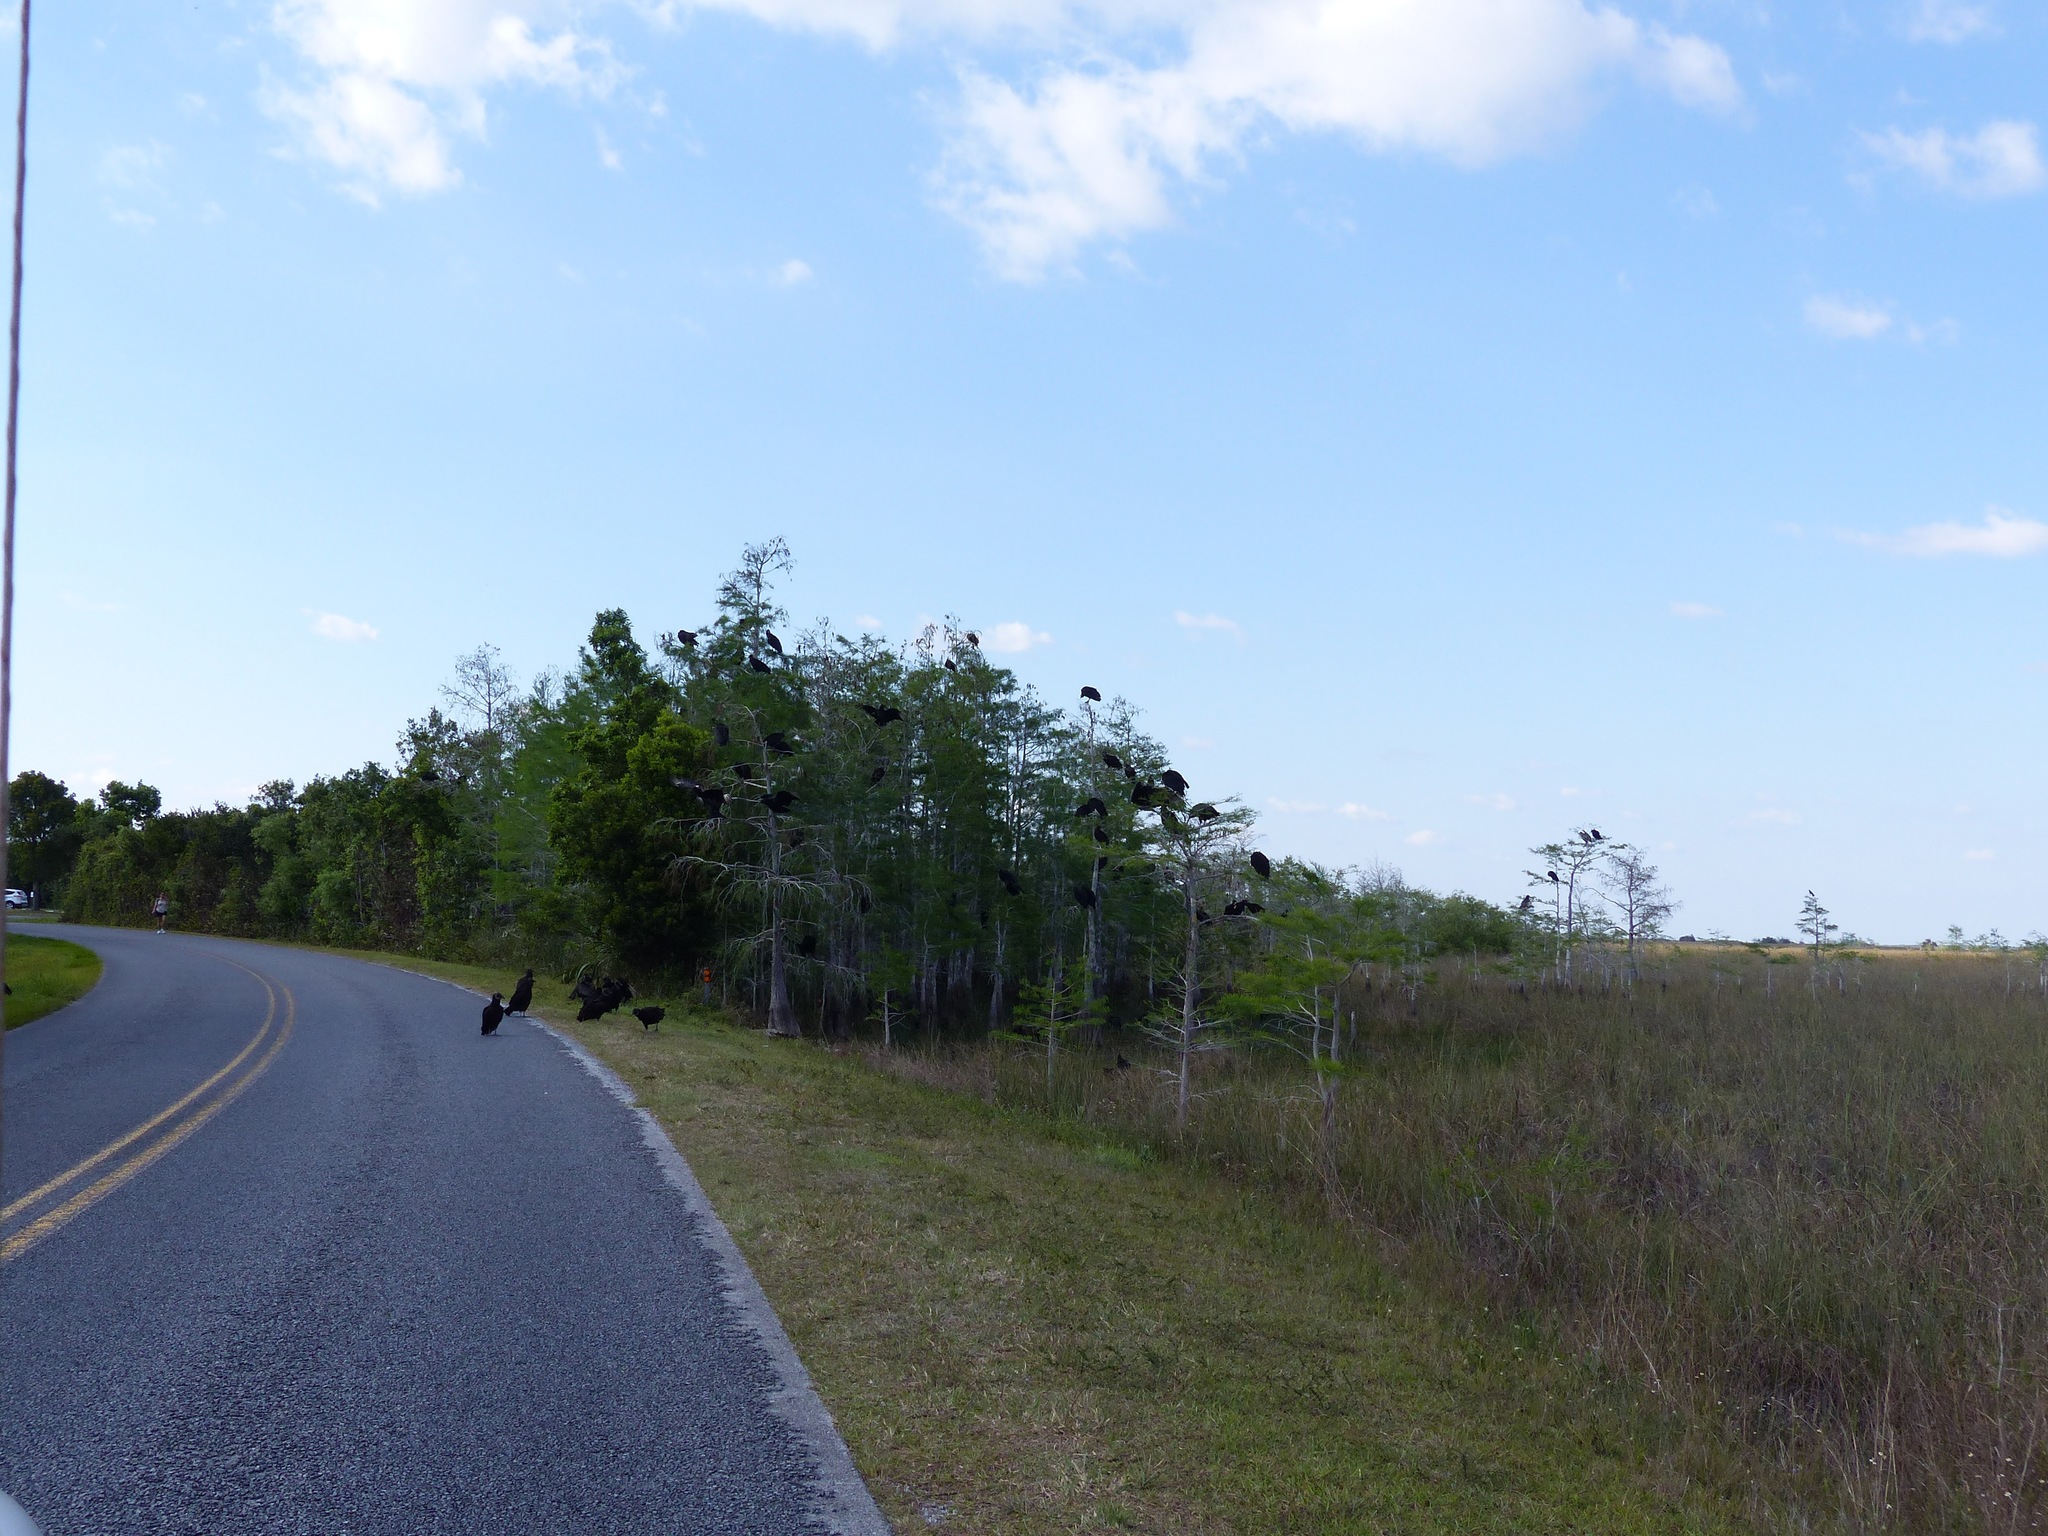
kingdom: Animalia
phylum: Chordata
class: Aves
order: Accipitriformes
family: Cathartidae
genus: Coragyps
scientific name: Coragyps atratus
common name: Black vulture
